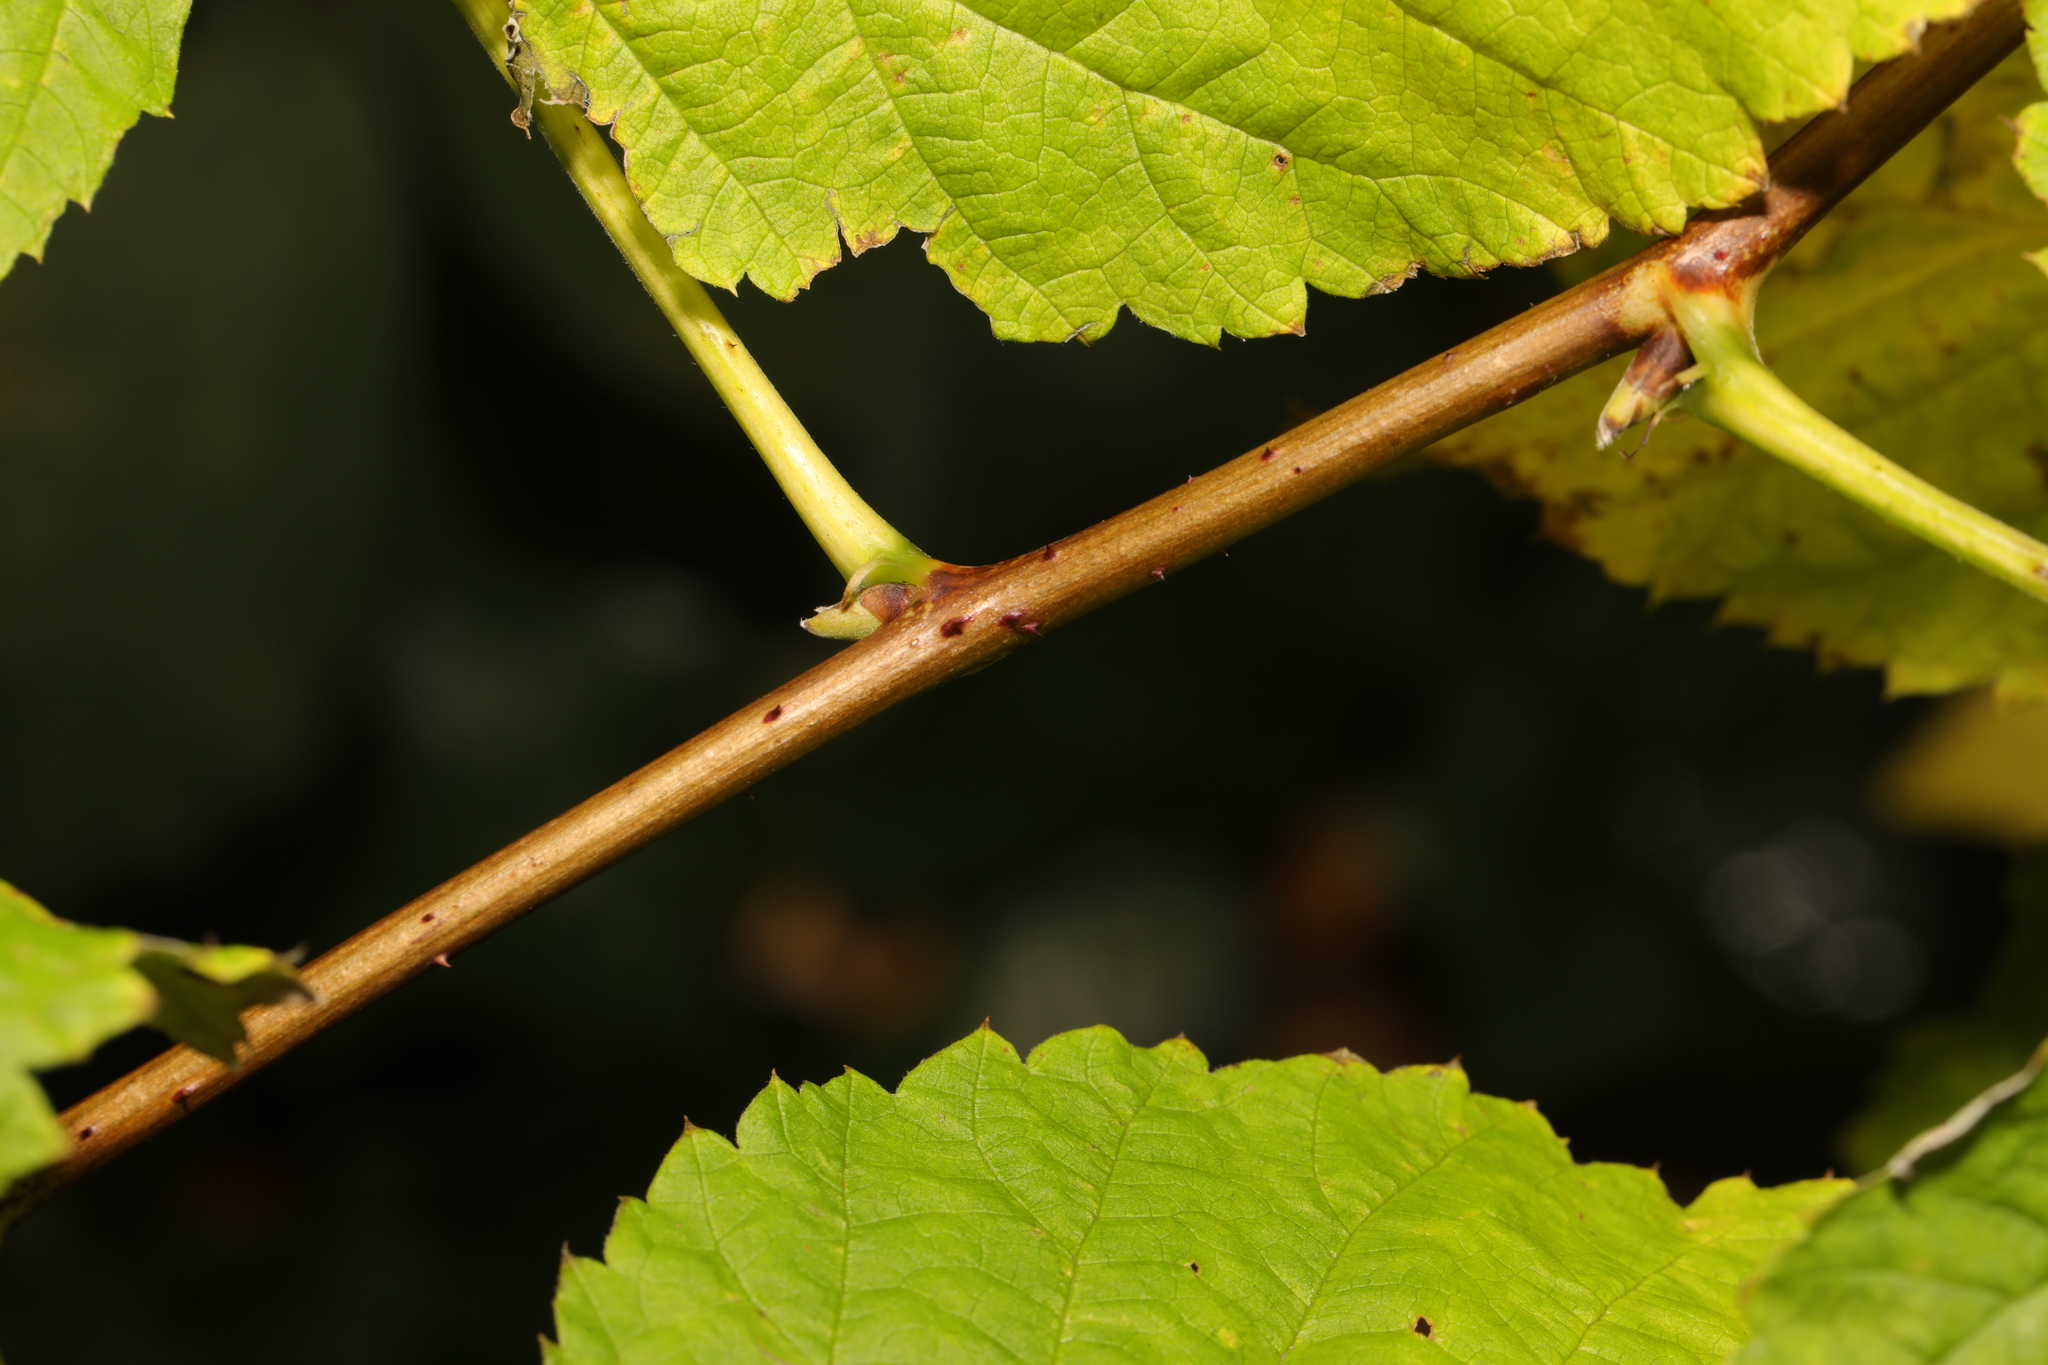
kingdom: Plantae
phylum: Tracheophyta
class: Magnoliopsida
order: Rosales
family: Rosaceae
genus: Rubus
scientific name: Rubus idaeus
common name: Raspberry
